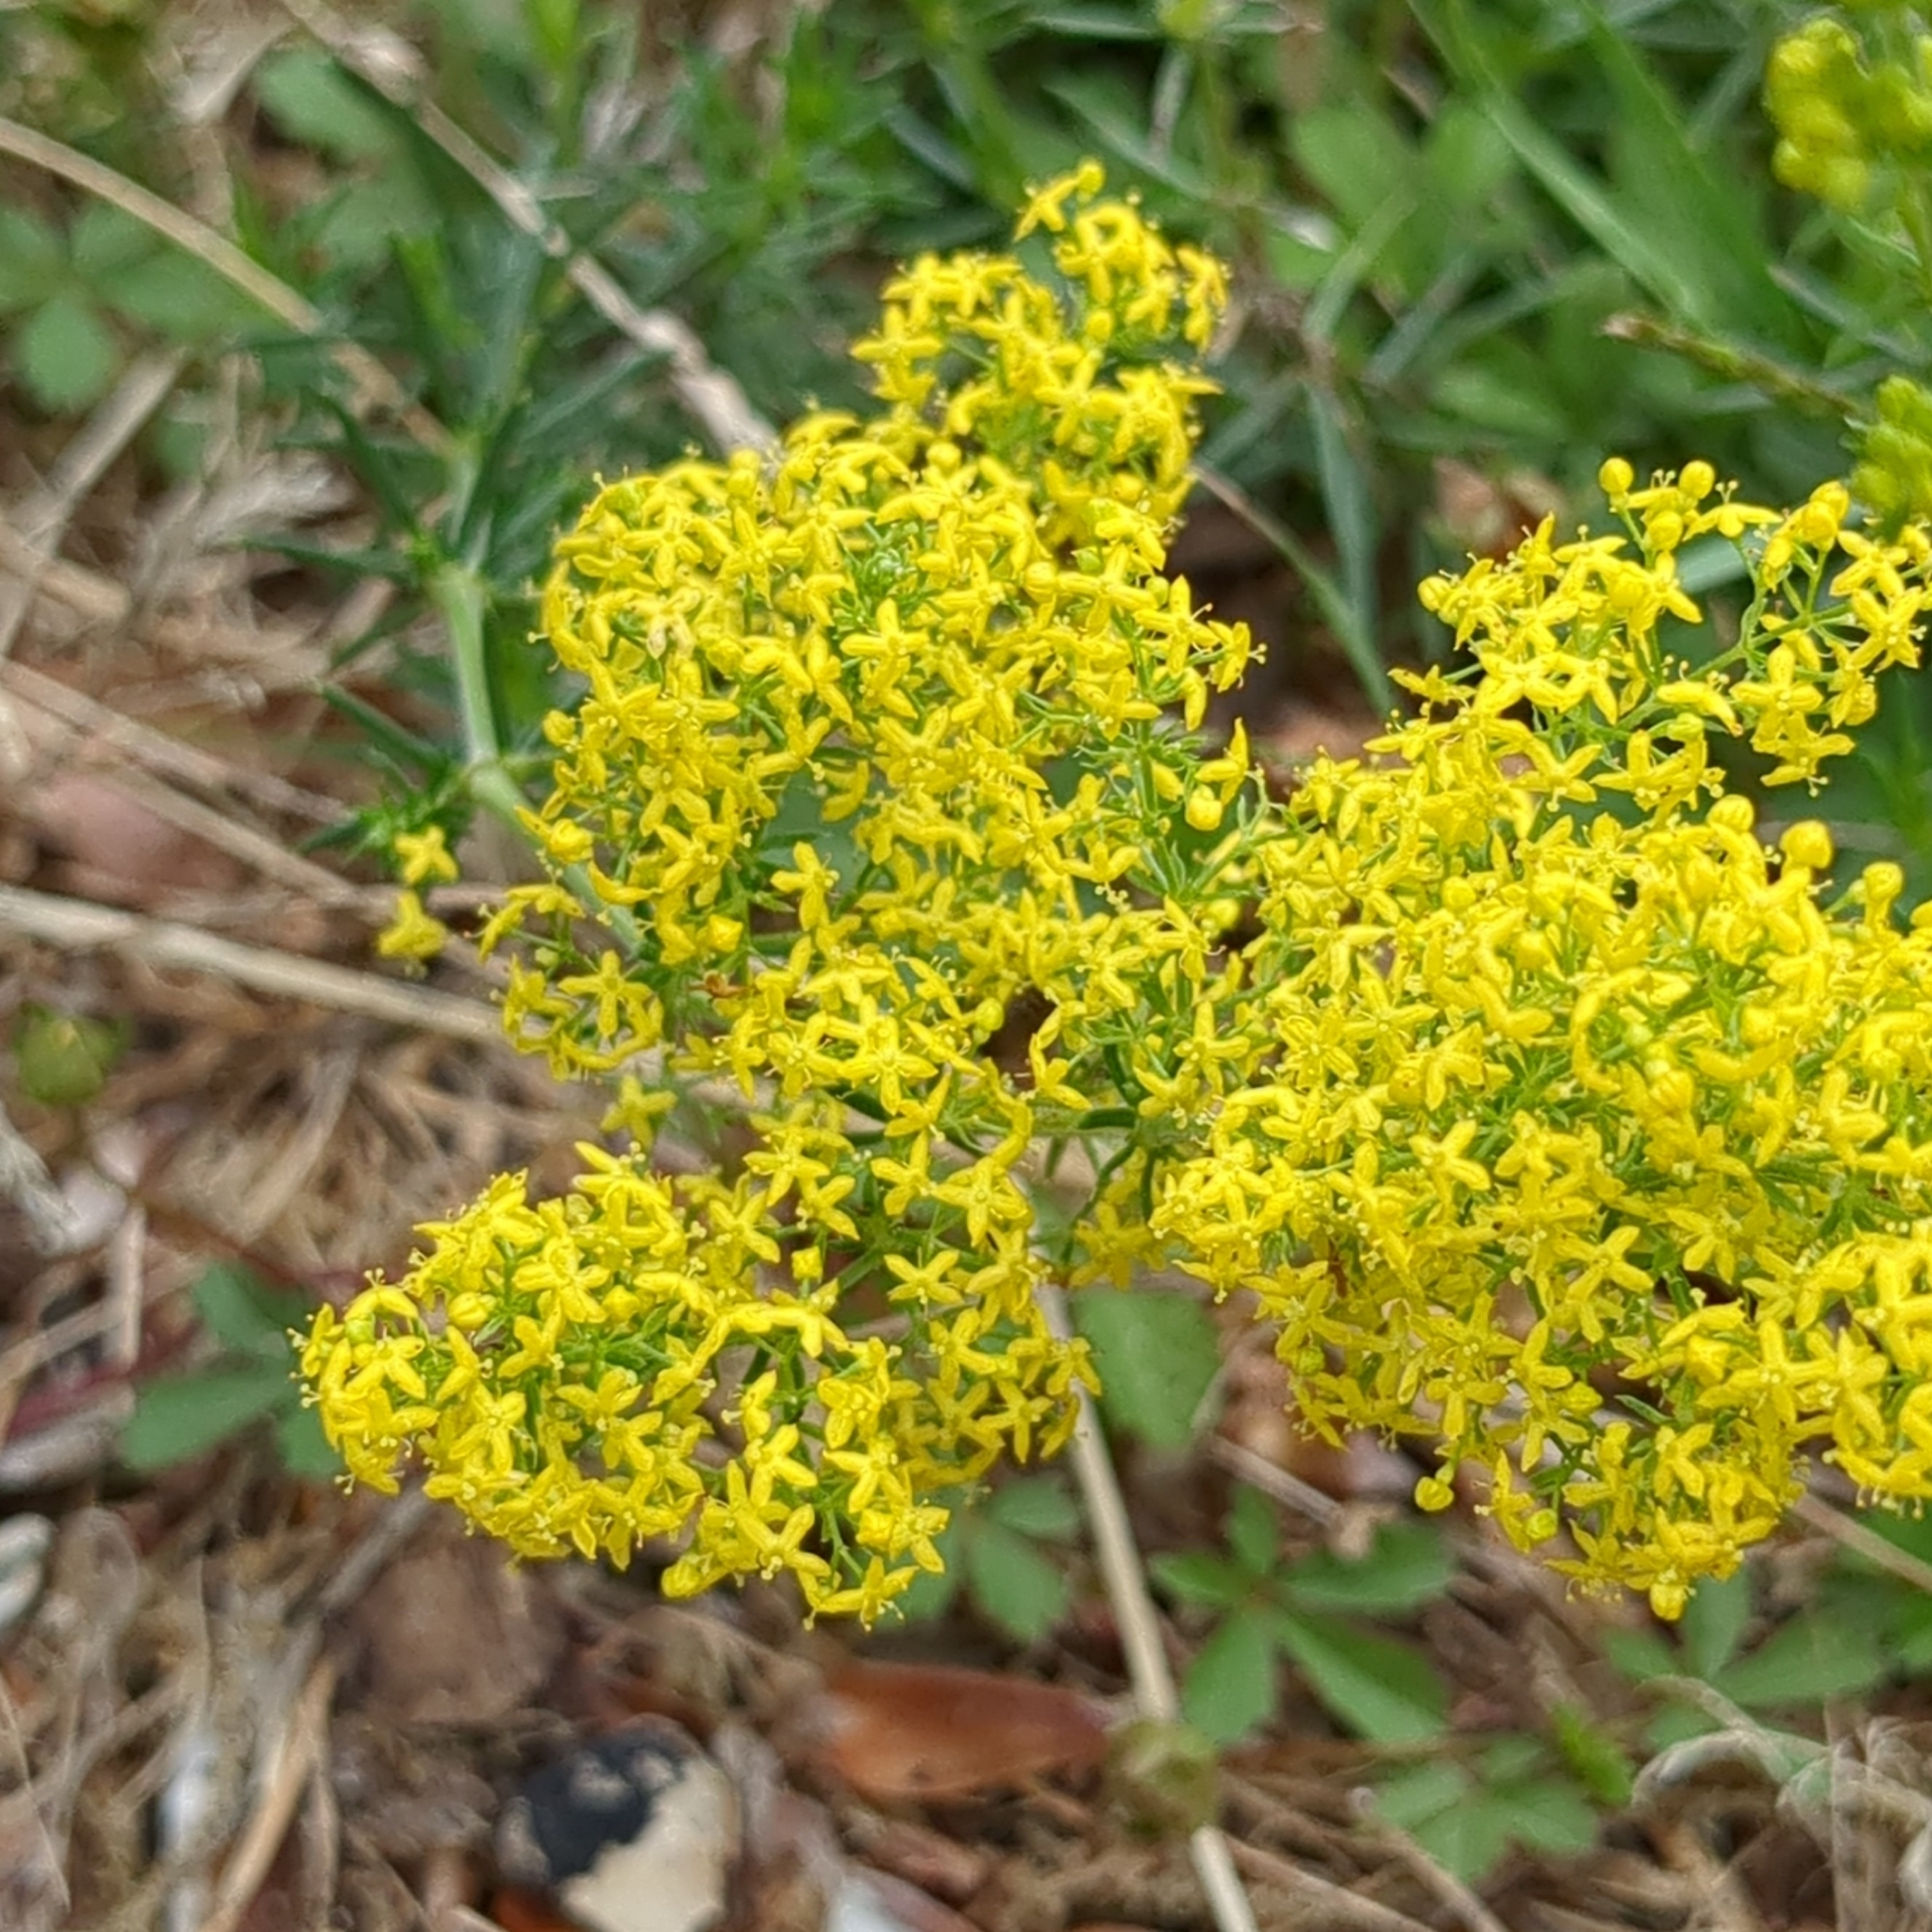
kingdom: Plantae
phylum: Tracheophyta
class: Magnoliopsida
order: Gentianales
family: Rubiaceae
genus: Galium
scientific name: Galium verum
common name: Lady's bedstraw
